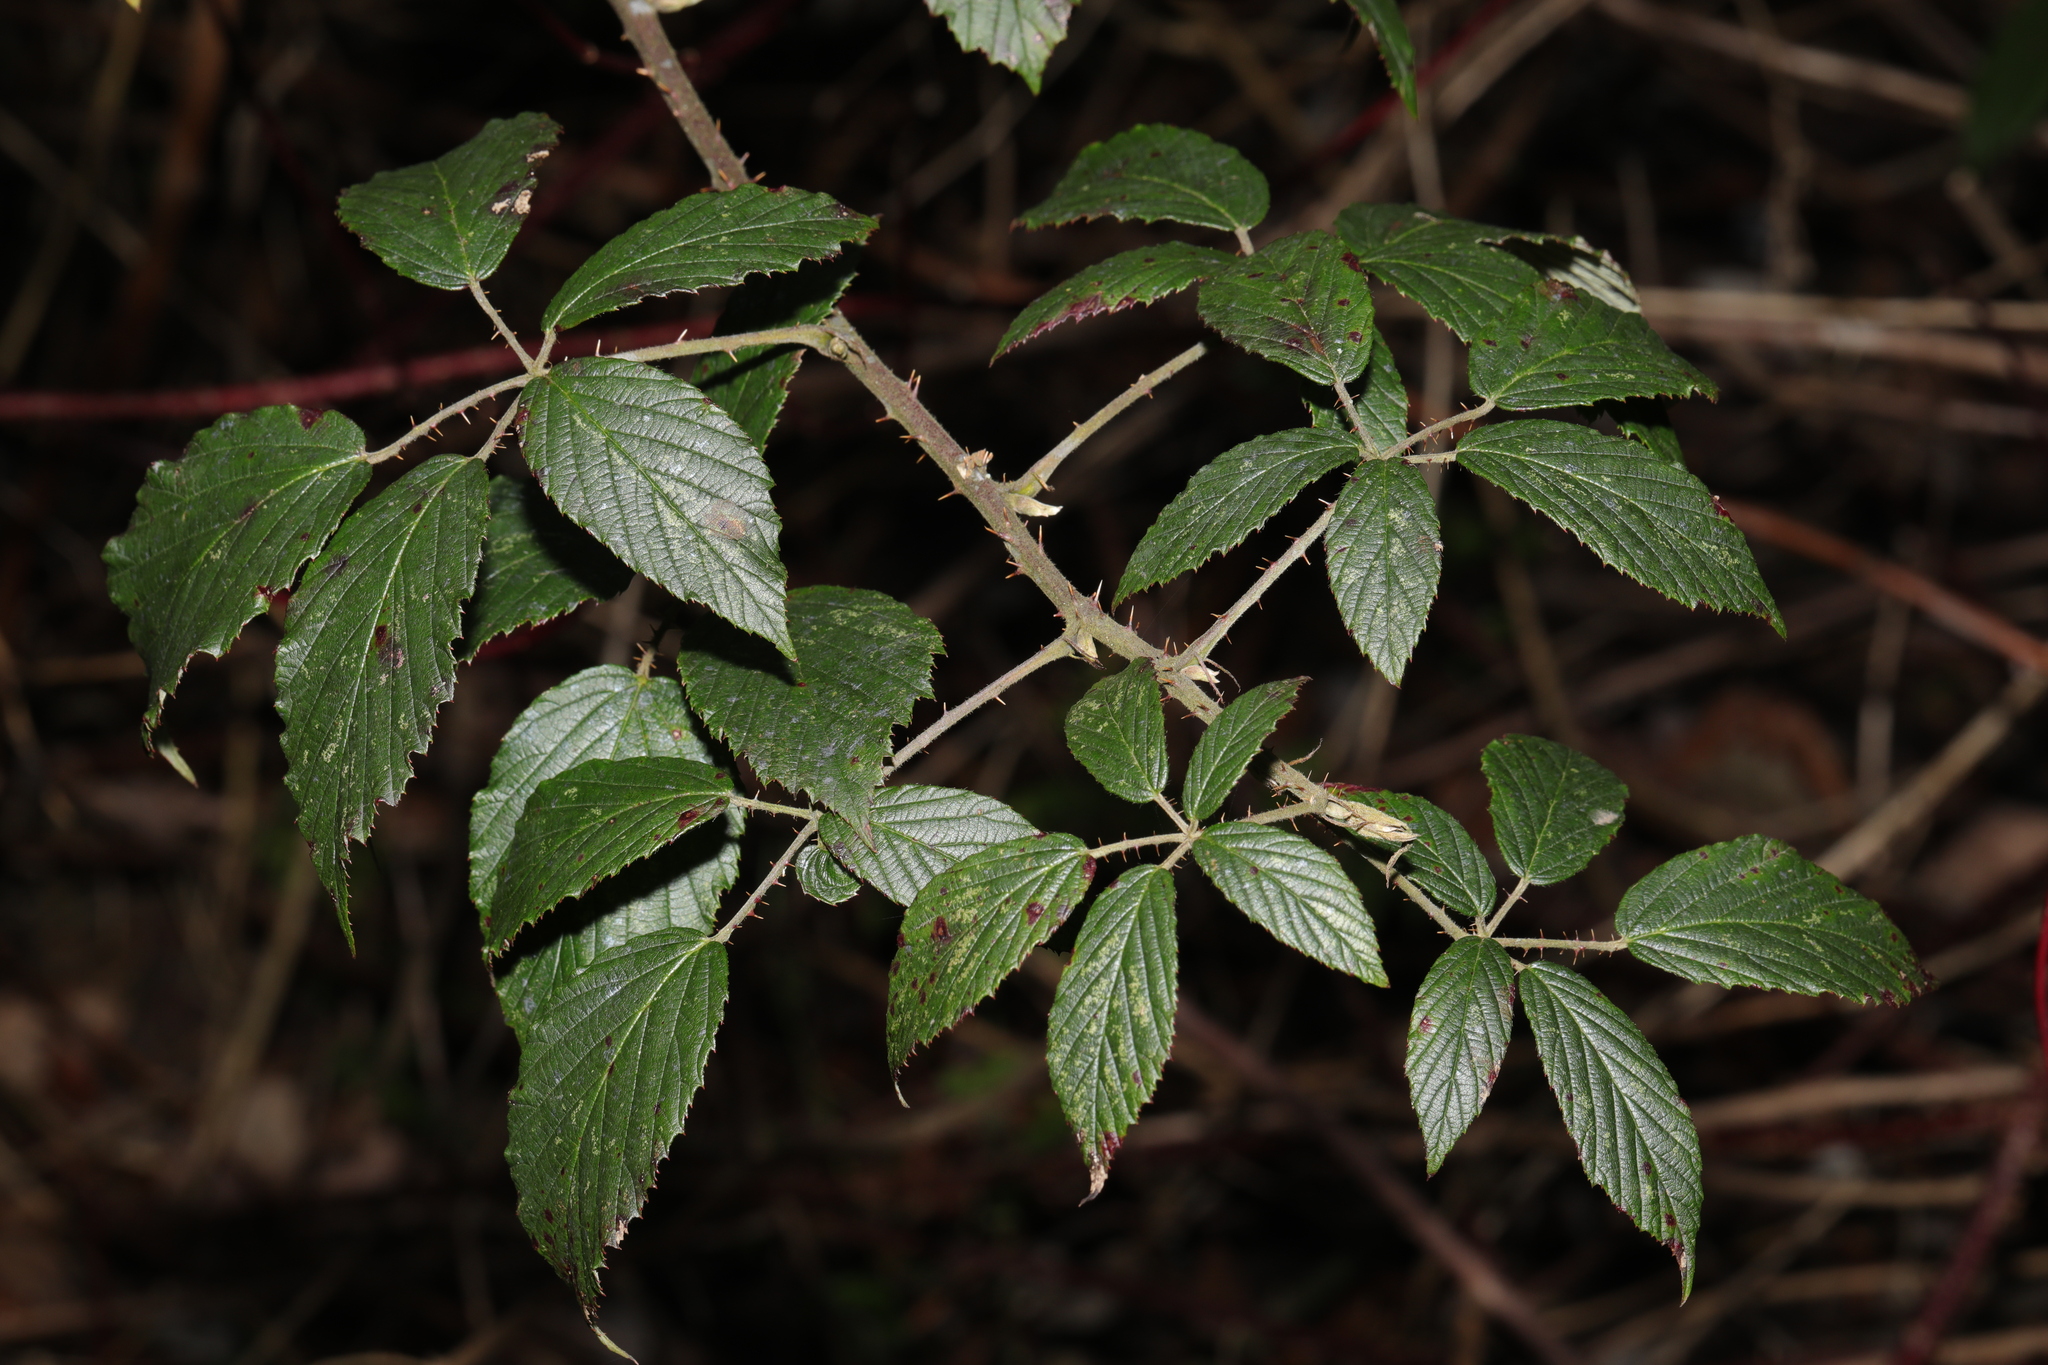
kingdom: Plantae
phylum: Tracheophyta
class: Magnoliopsida
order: Rosales
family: Rosaceae
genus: Rubus
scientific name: Rubus criniger
